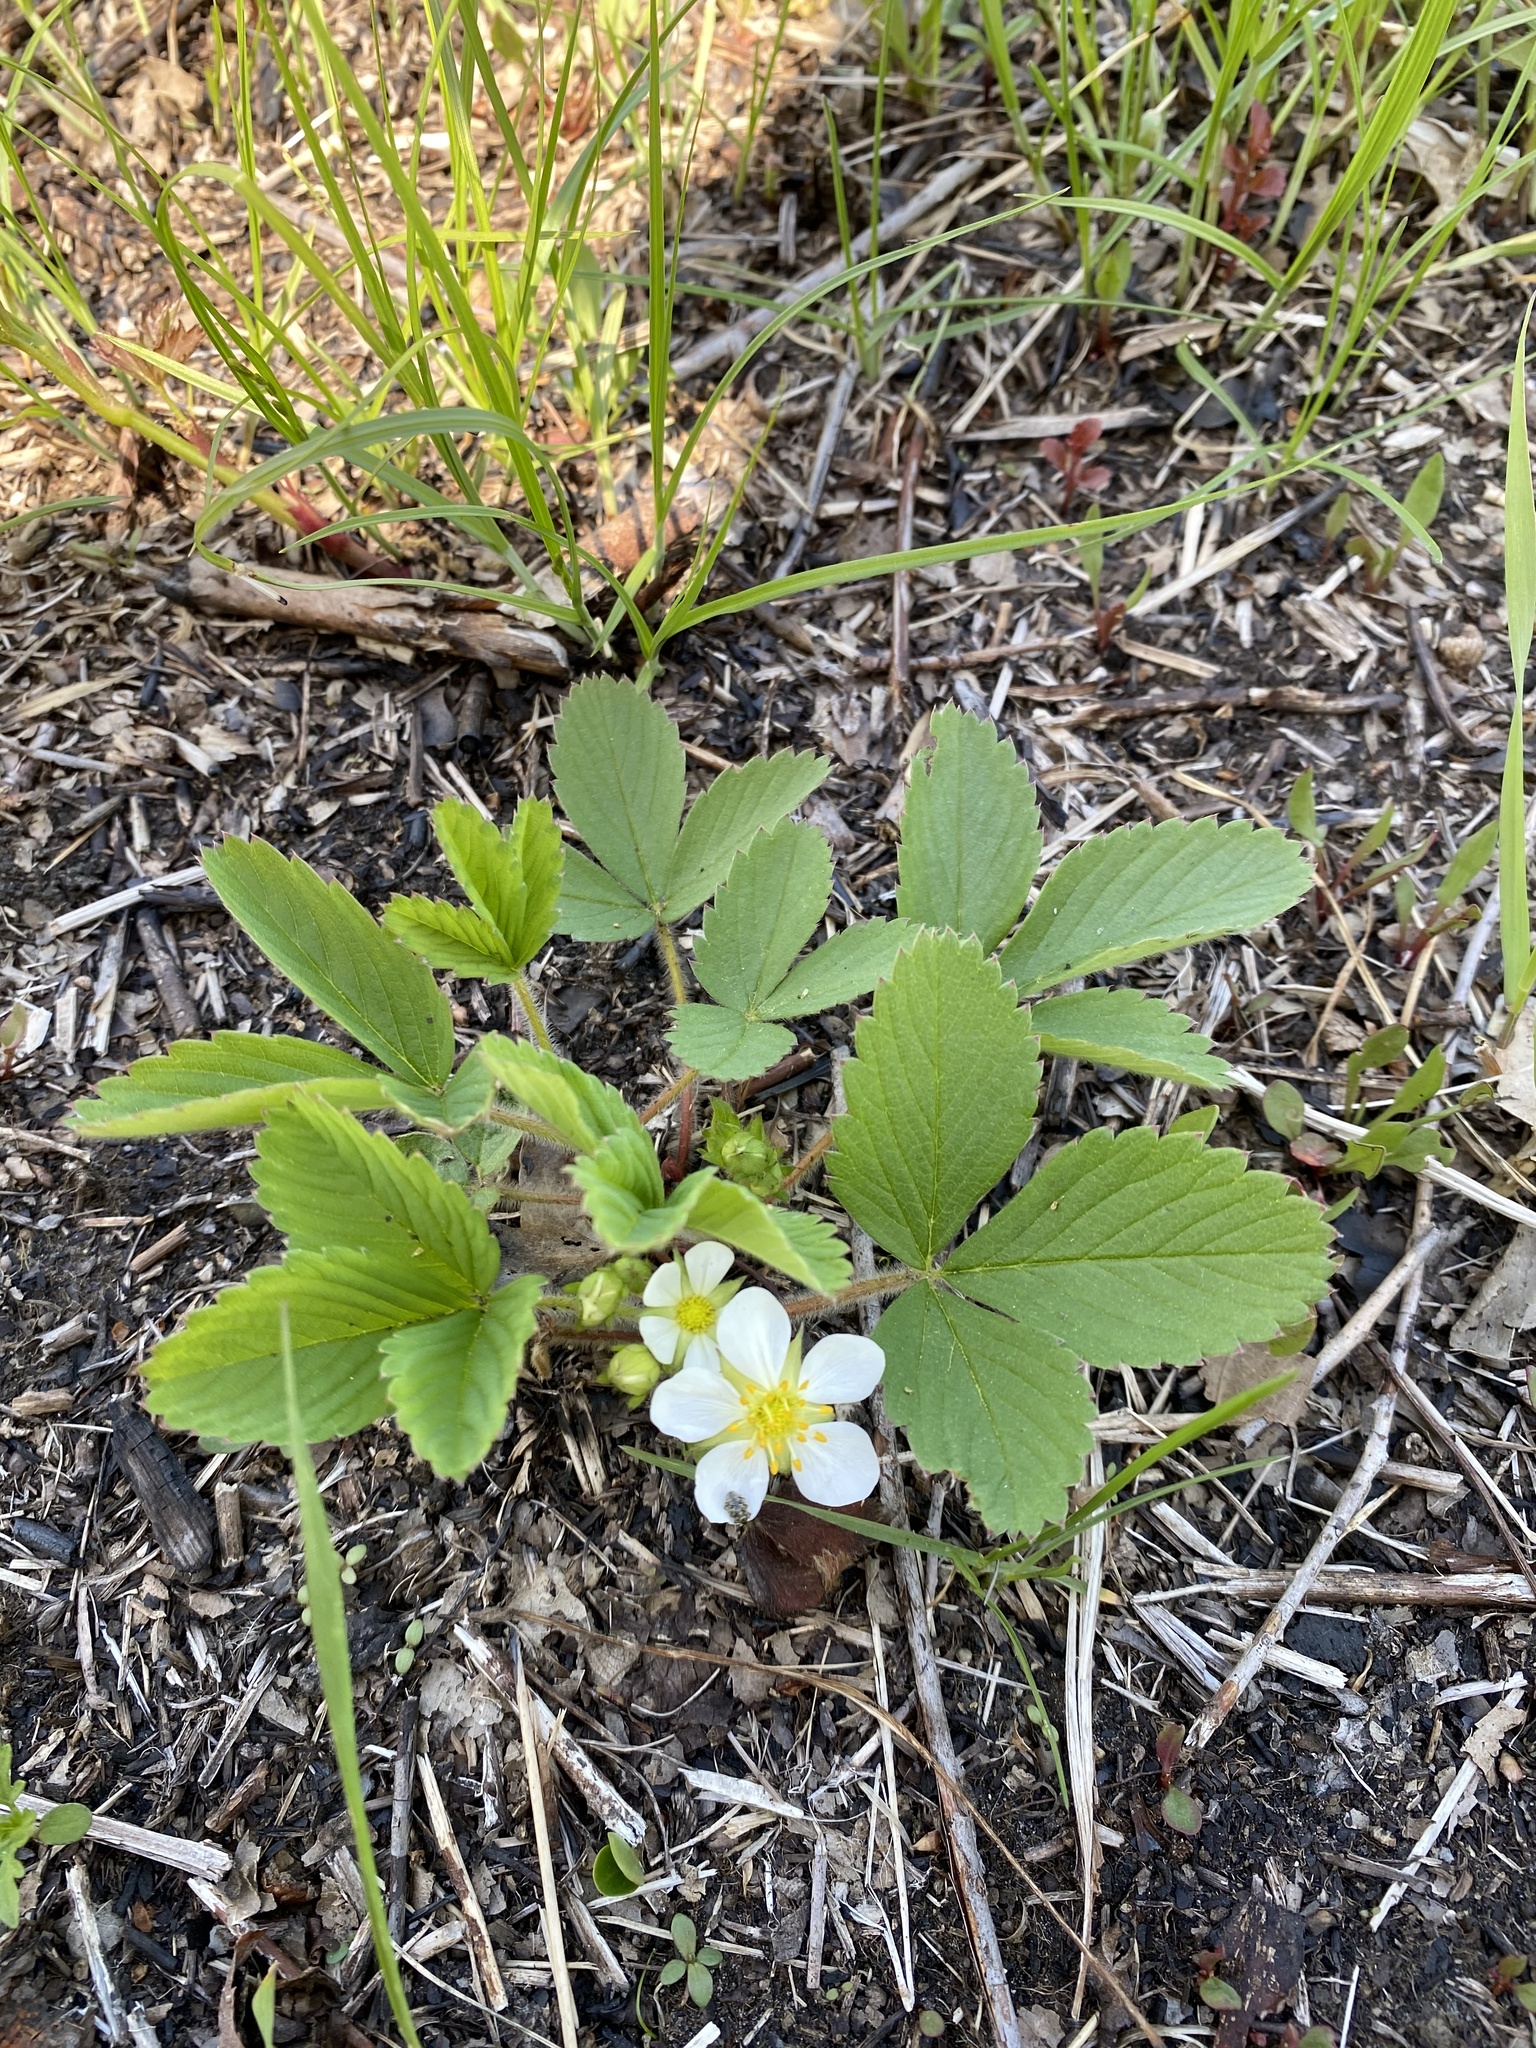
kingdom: Plantae
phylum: Tracheophyta
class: Magnoliopsida
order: Rosales
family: Rosaceae
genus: Fragaria
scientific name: Fragaria virginiana
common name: Thickleaved wild strawberry
